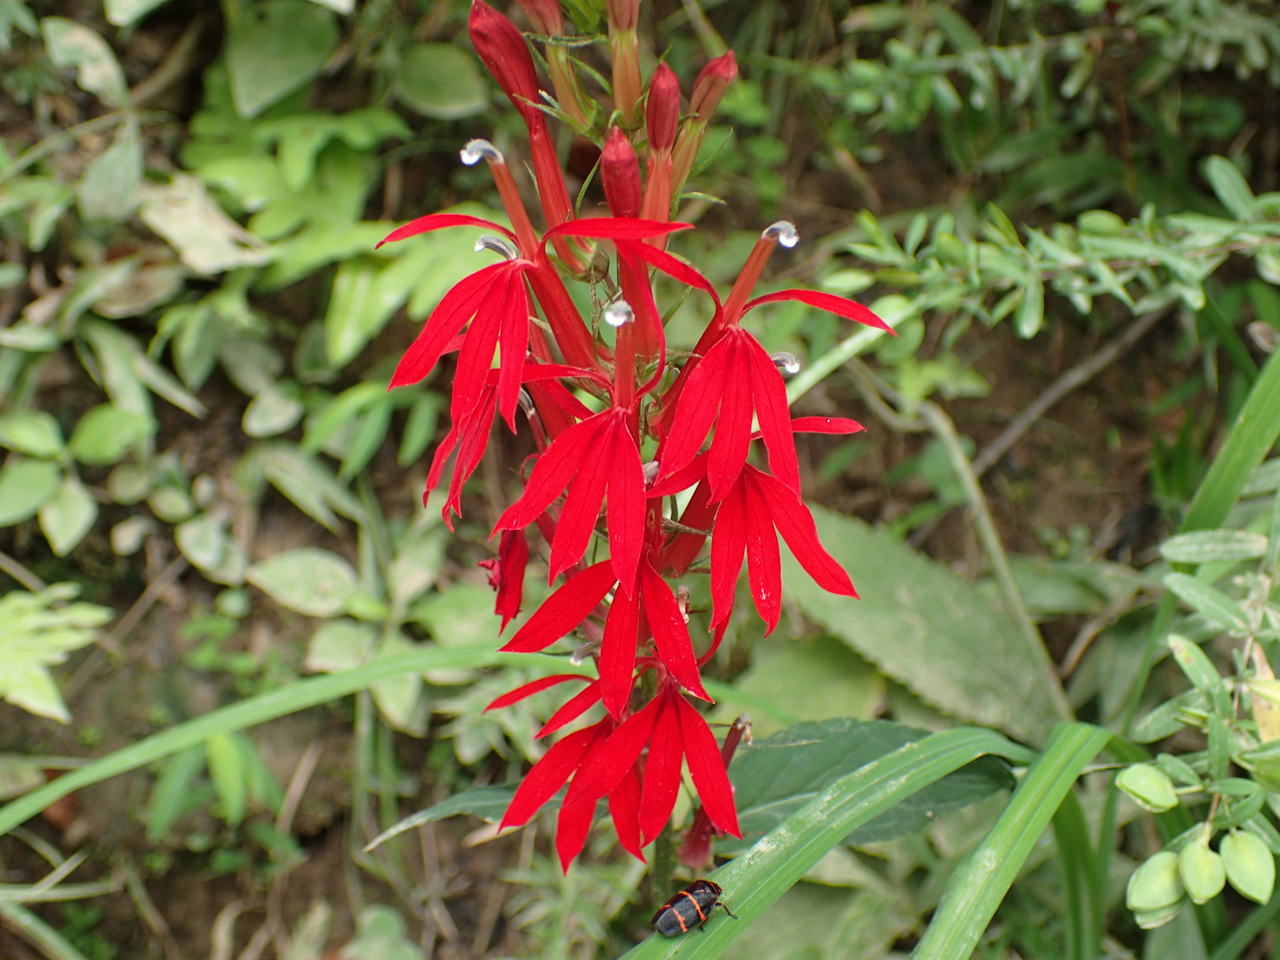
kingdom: Plantae
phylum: Tracheophyta
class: Magnoliopsida
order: Asterales
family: Campanulaceae
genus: Lobelia
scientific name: Lobelia cardinalis
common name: Cardinal flower
